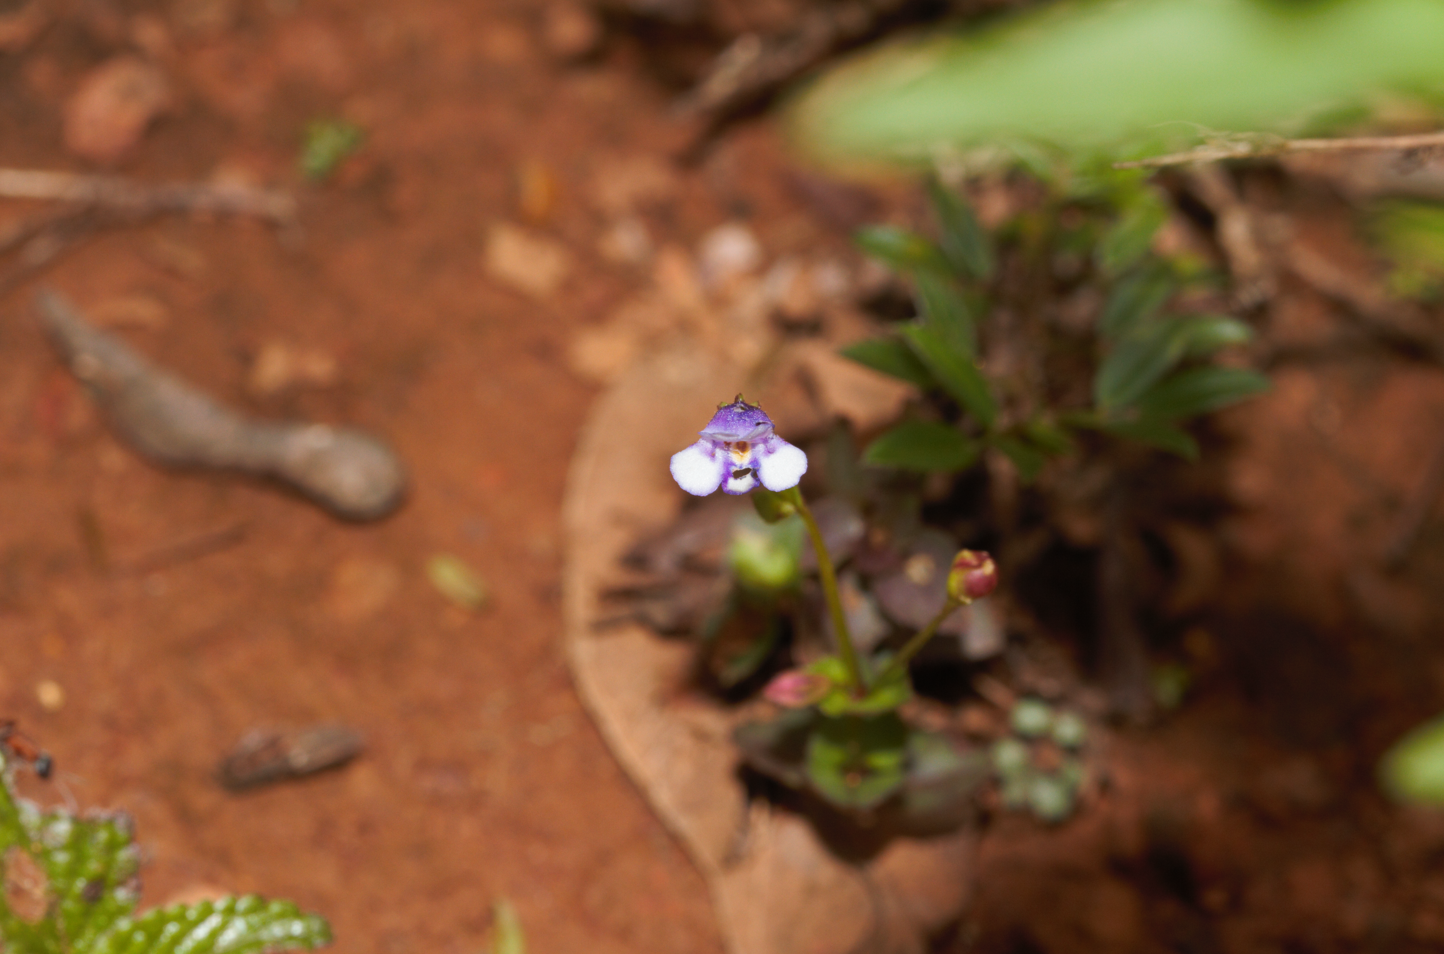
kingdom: Plantae
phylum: Tracheophyta
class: Magnoliopsida
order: Lamiales
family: Linderniaceae
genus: Torenia
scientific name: Torenia crustacea
